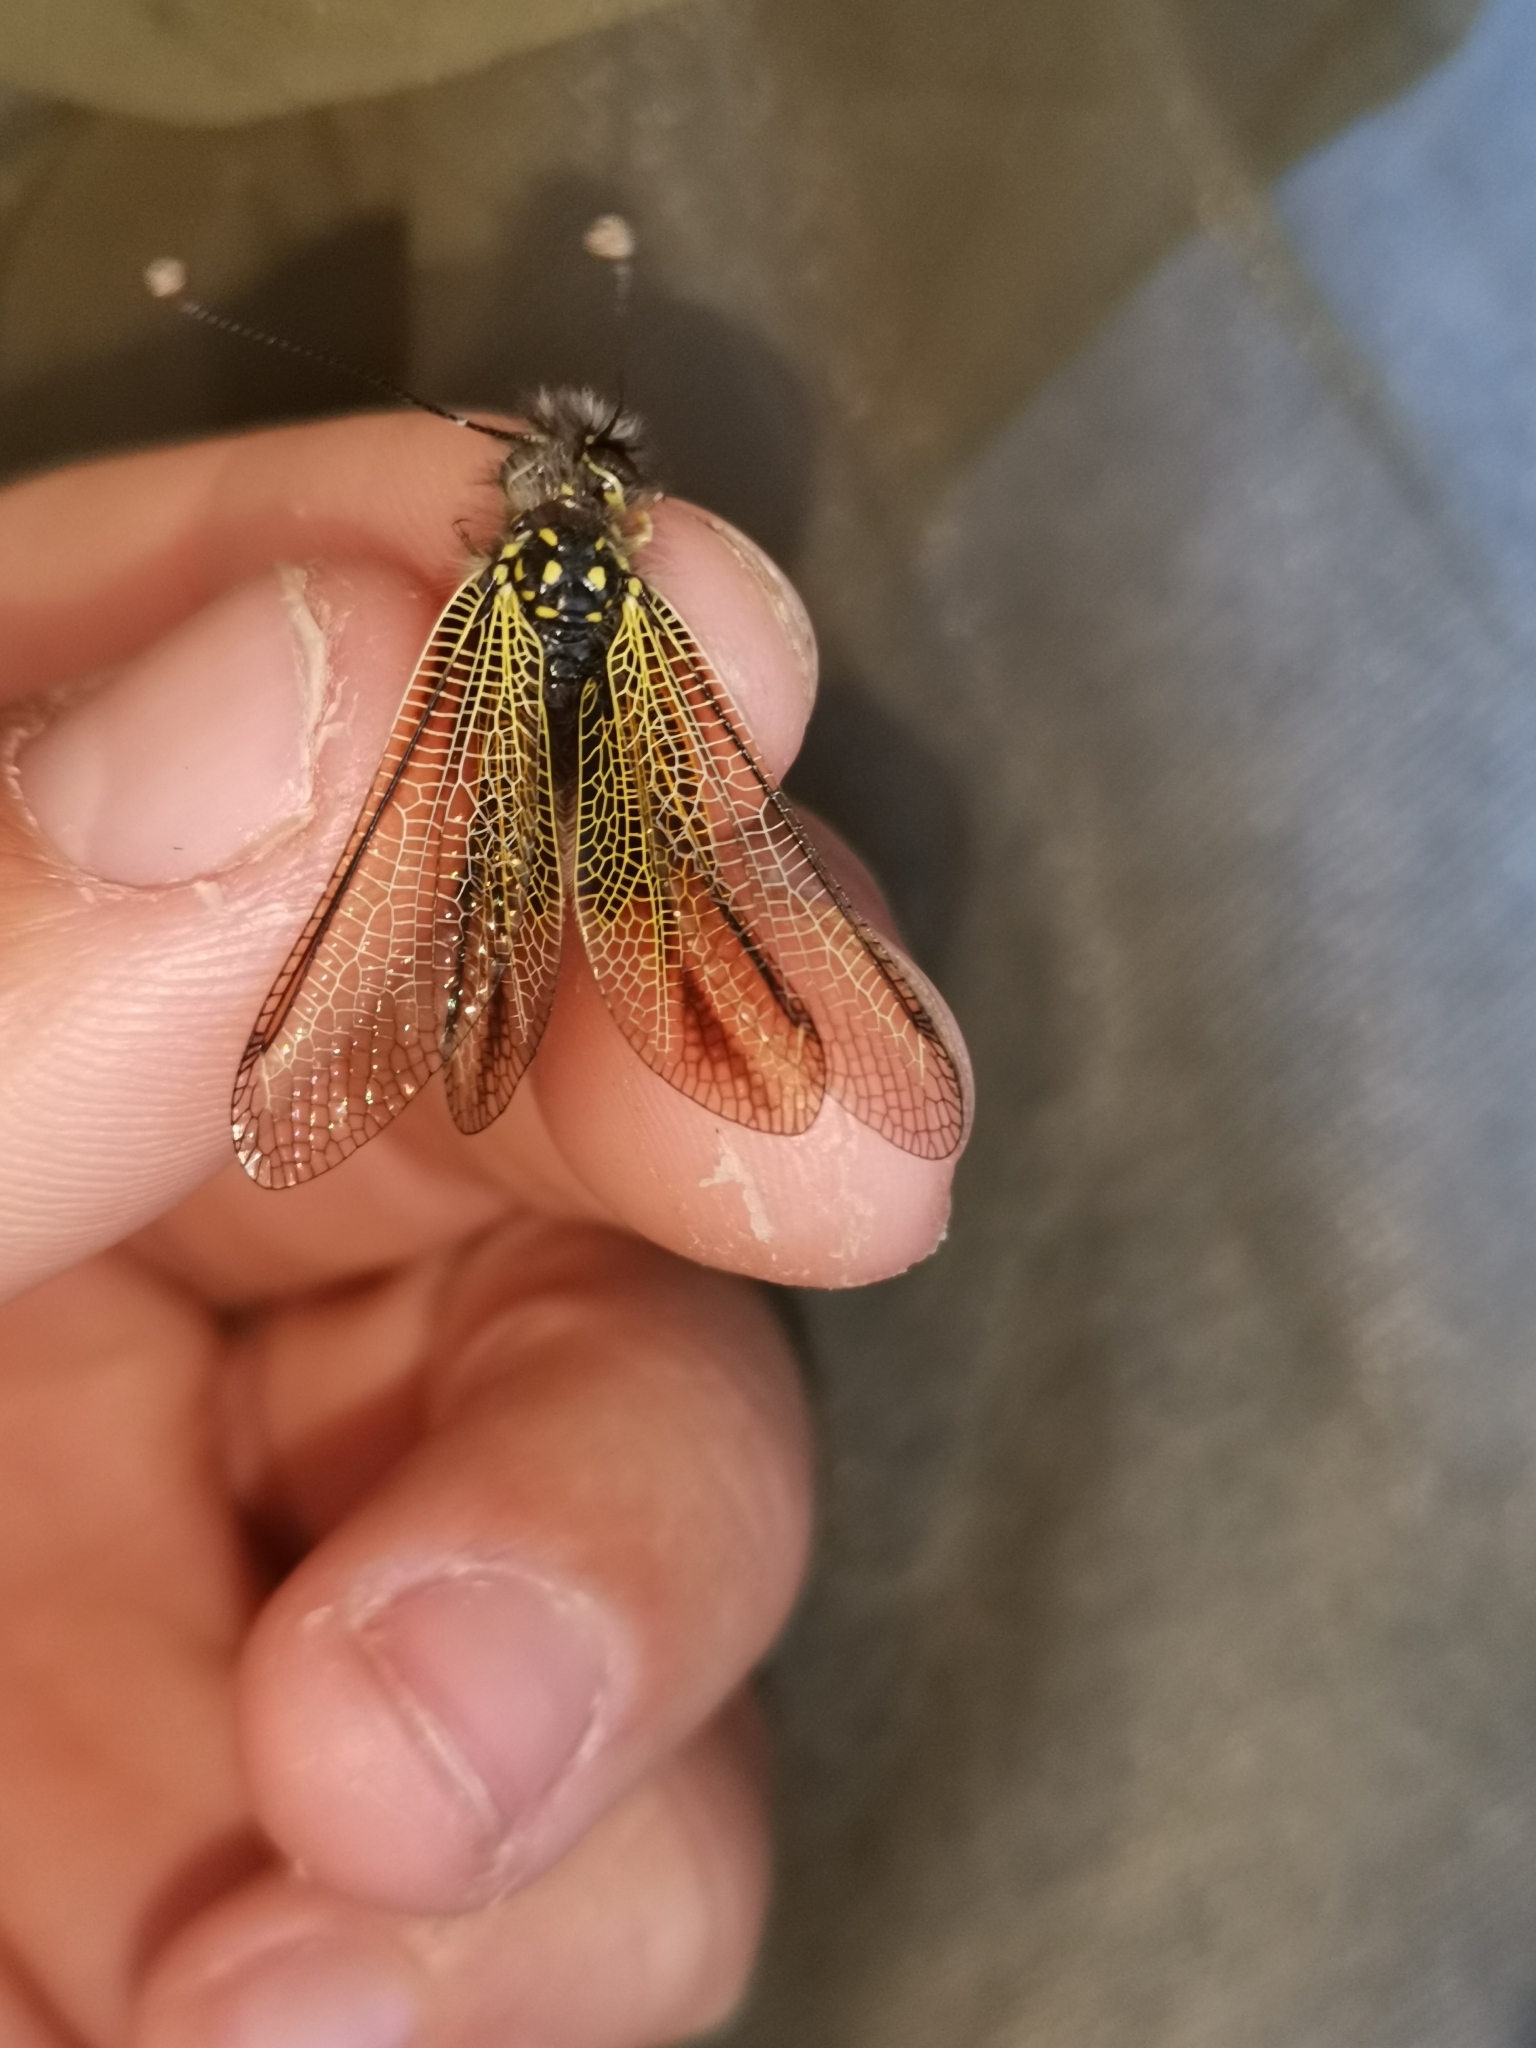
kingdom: Animalia
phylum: Arthropoda
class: Insecta
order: Neuroptera
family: Ascalaphidae
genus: Libelloides
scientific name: Libelloides ictericus
